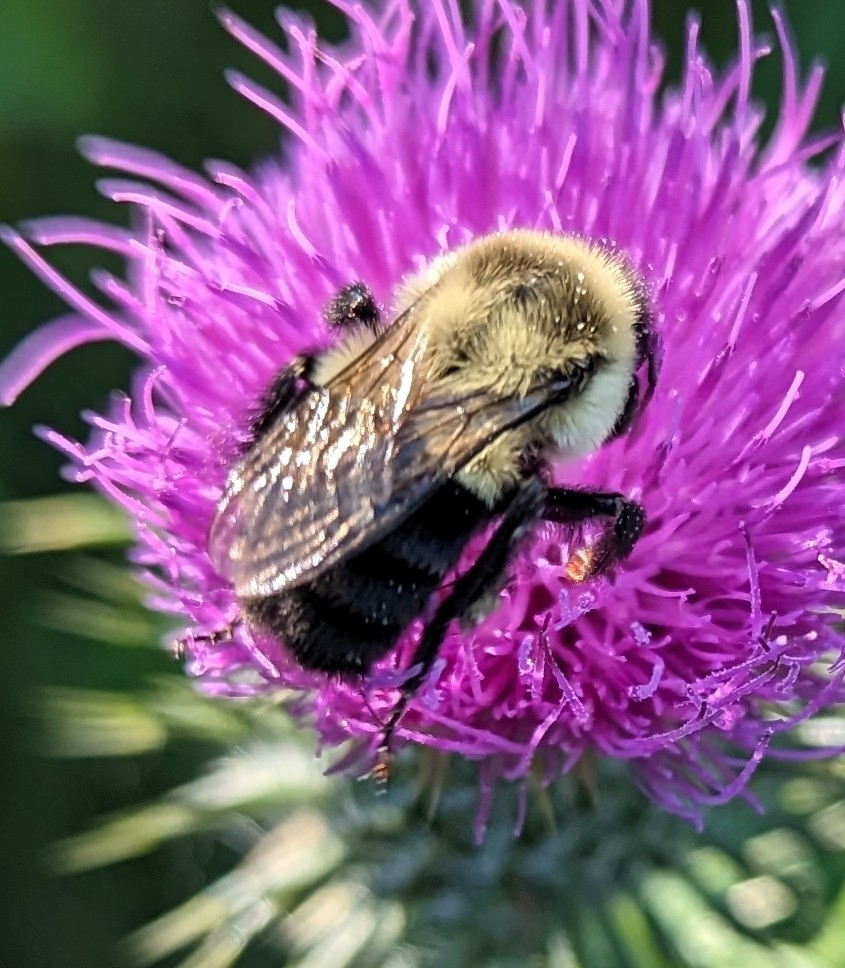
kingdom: Animalia
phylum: Arthropoda
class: Insecta
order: Hymenoptera
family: Apidae
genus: Bombus
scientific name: Bombus impatiens
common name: Common eastern bumble bee
